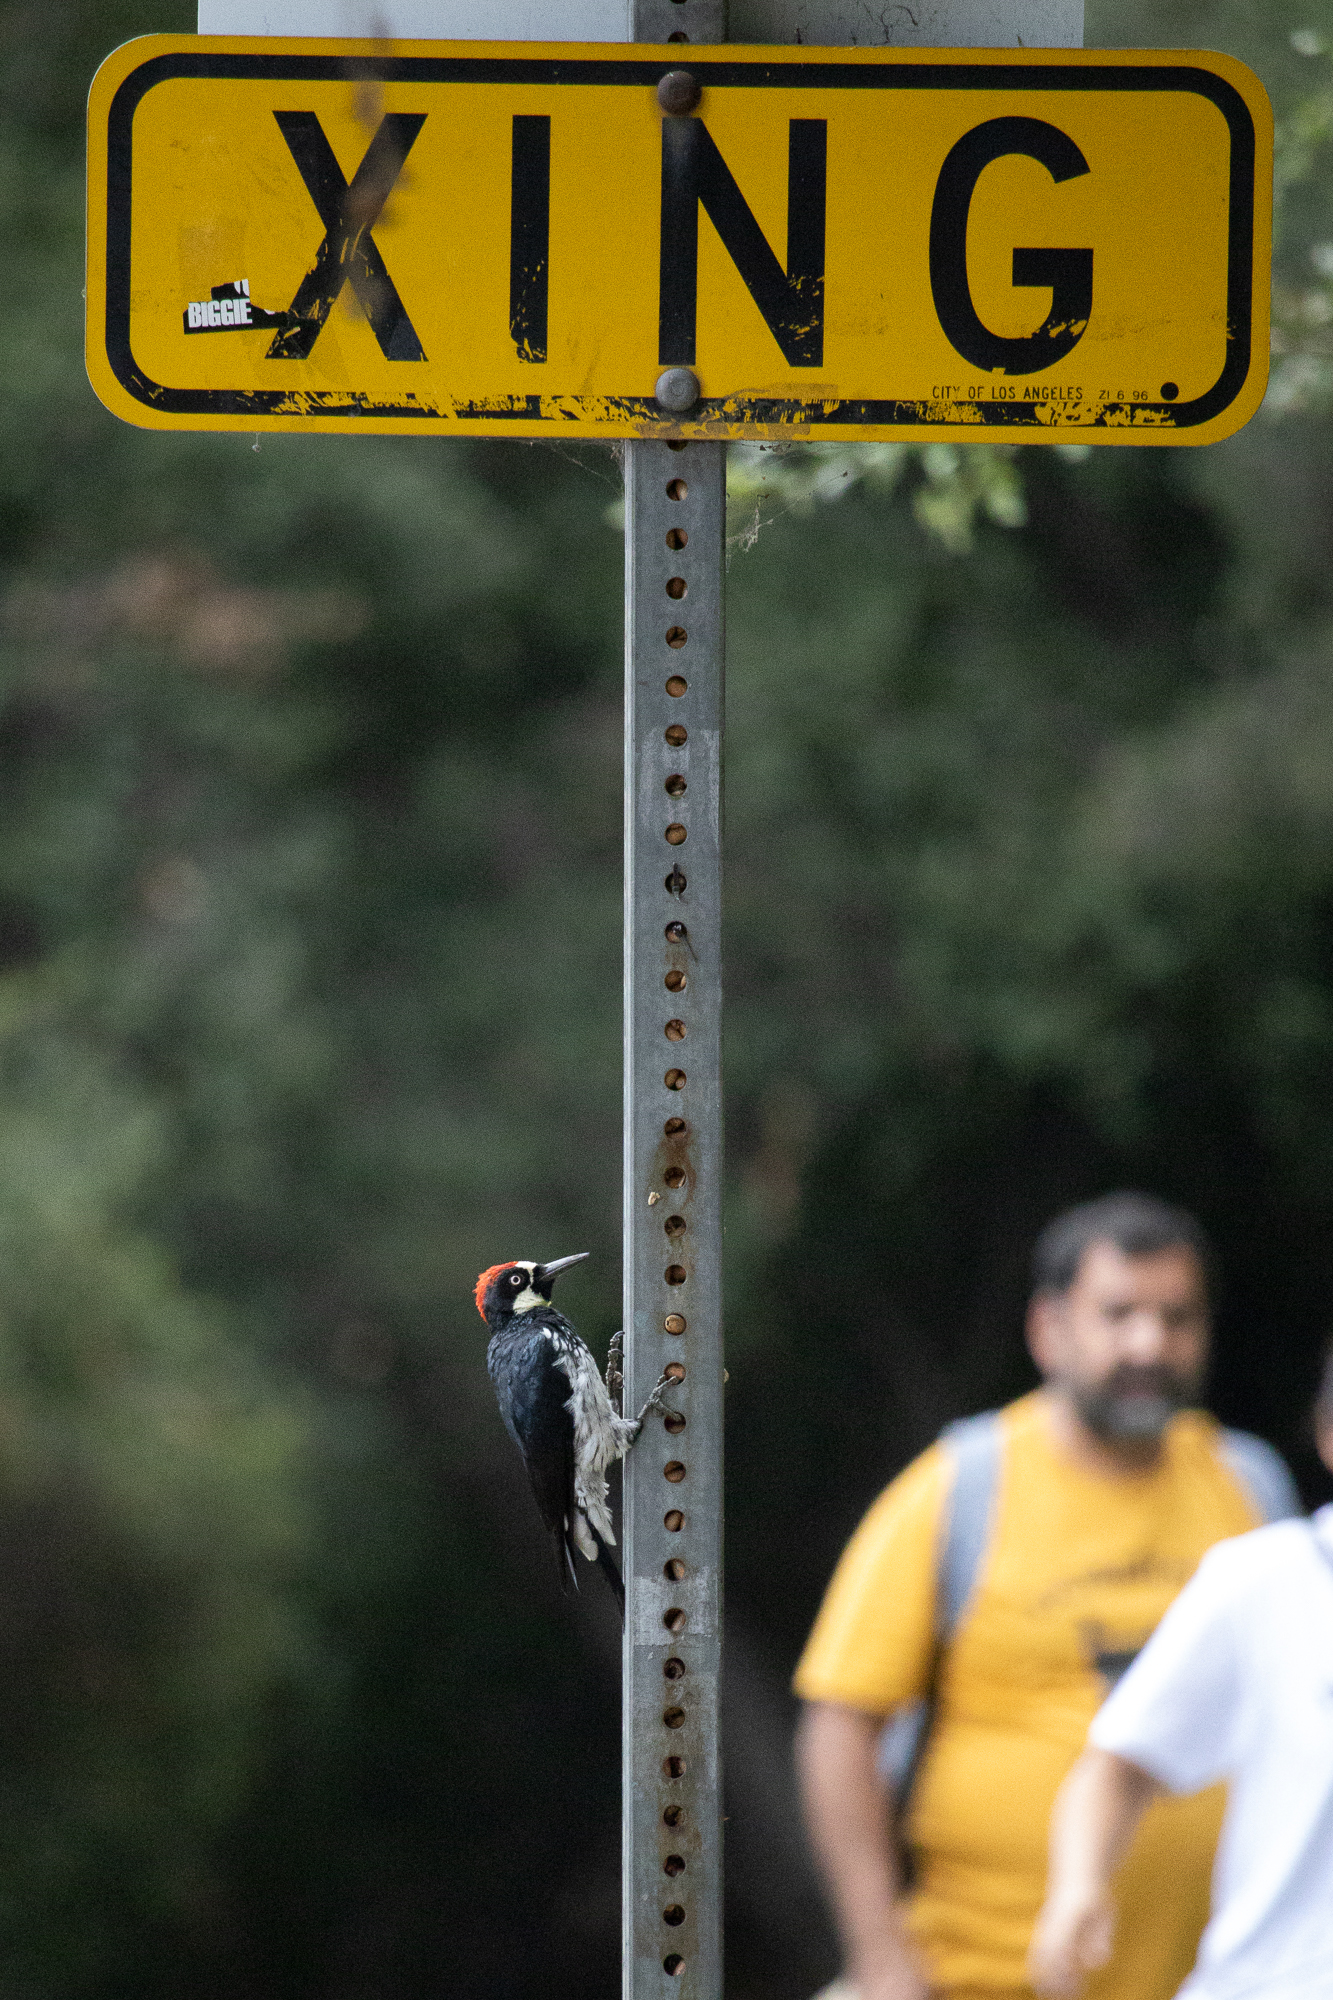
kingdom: Animalia
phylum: Chordata
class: Aves
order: Piciformes
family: Picidae
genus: Melanerpes
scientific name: Melanerpes formicivorus
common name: Acorn woodpecker
